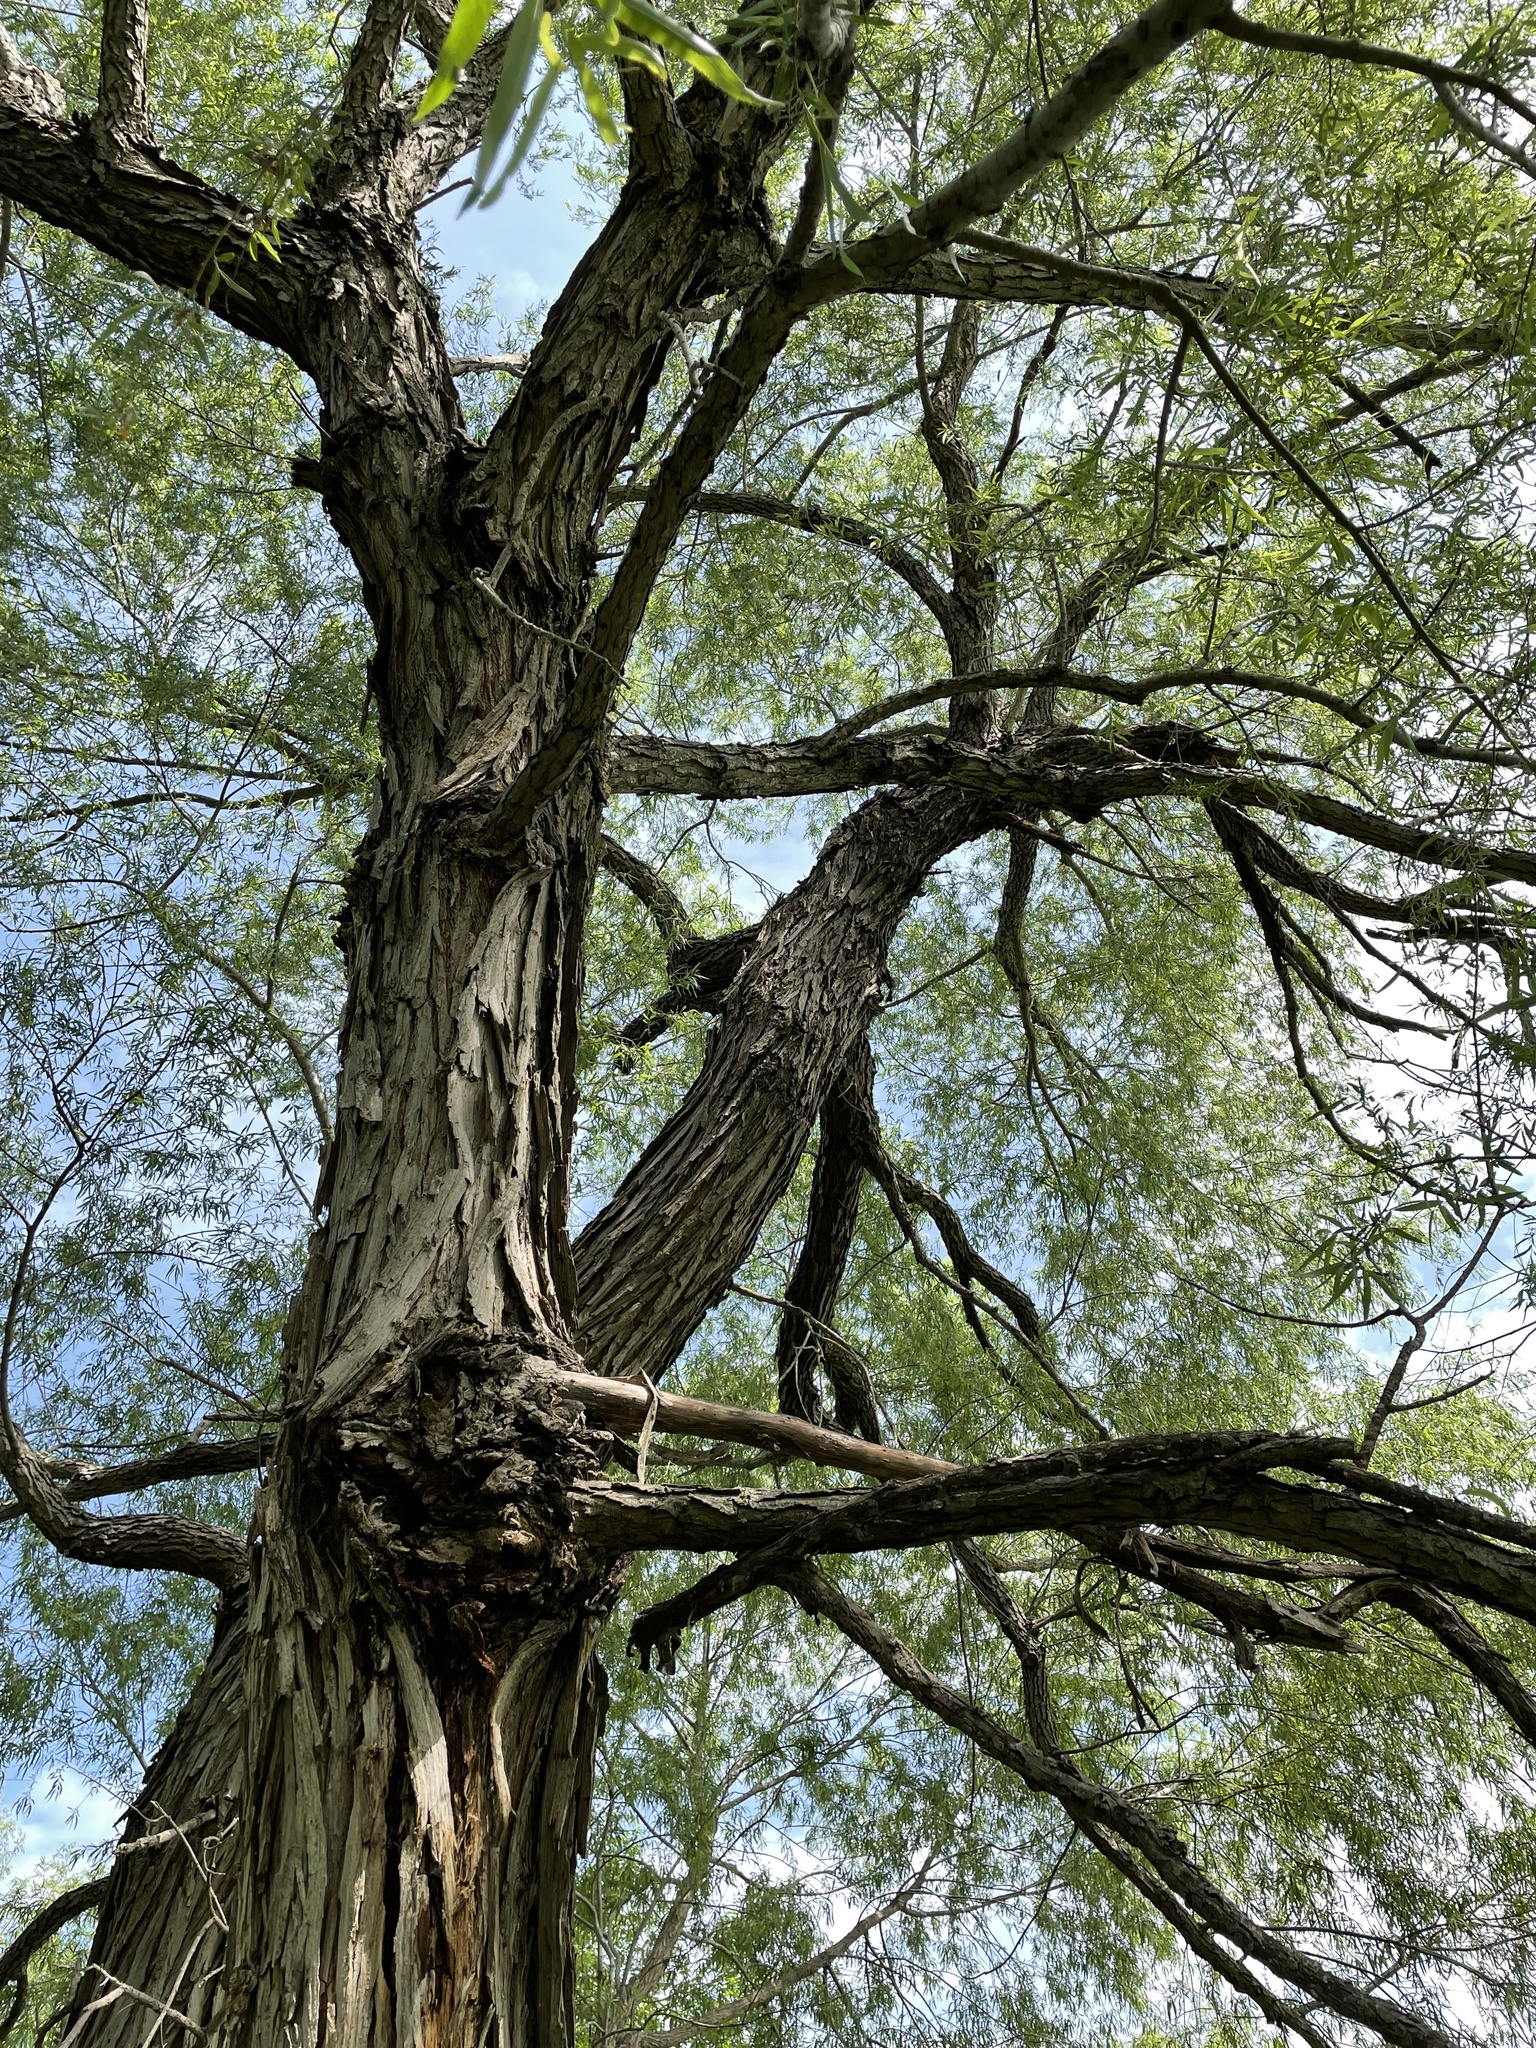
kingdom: Plantae
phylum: Tracheophyta
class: Magnoliopsida
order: Malpighiales
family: Salicaceae
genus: Salix
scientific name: Salix nigra
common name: Black willow
